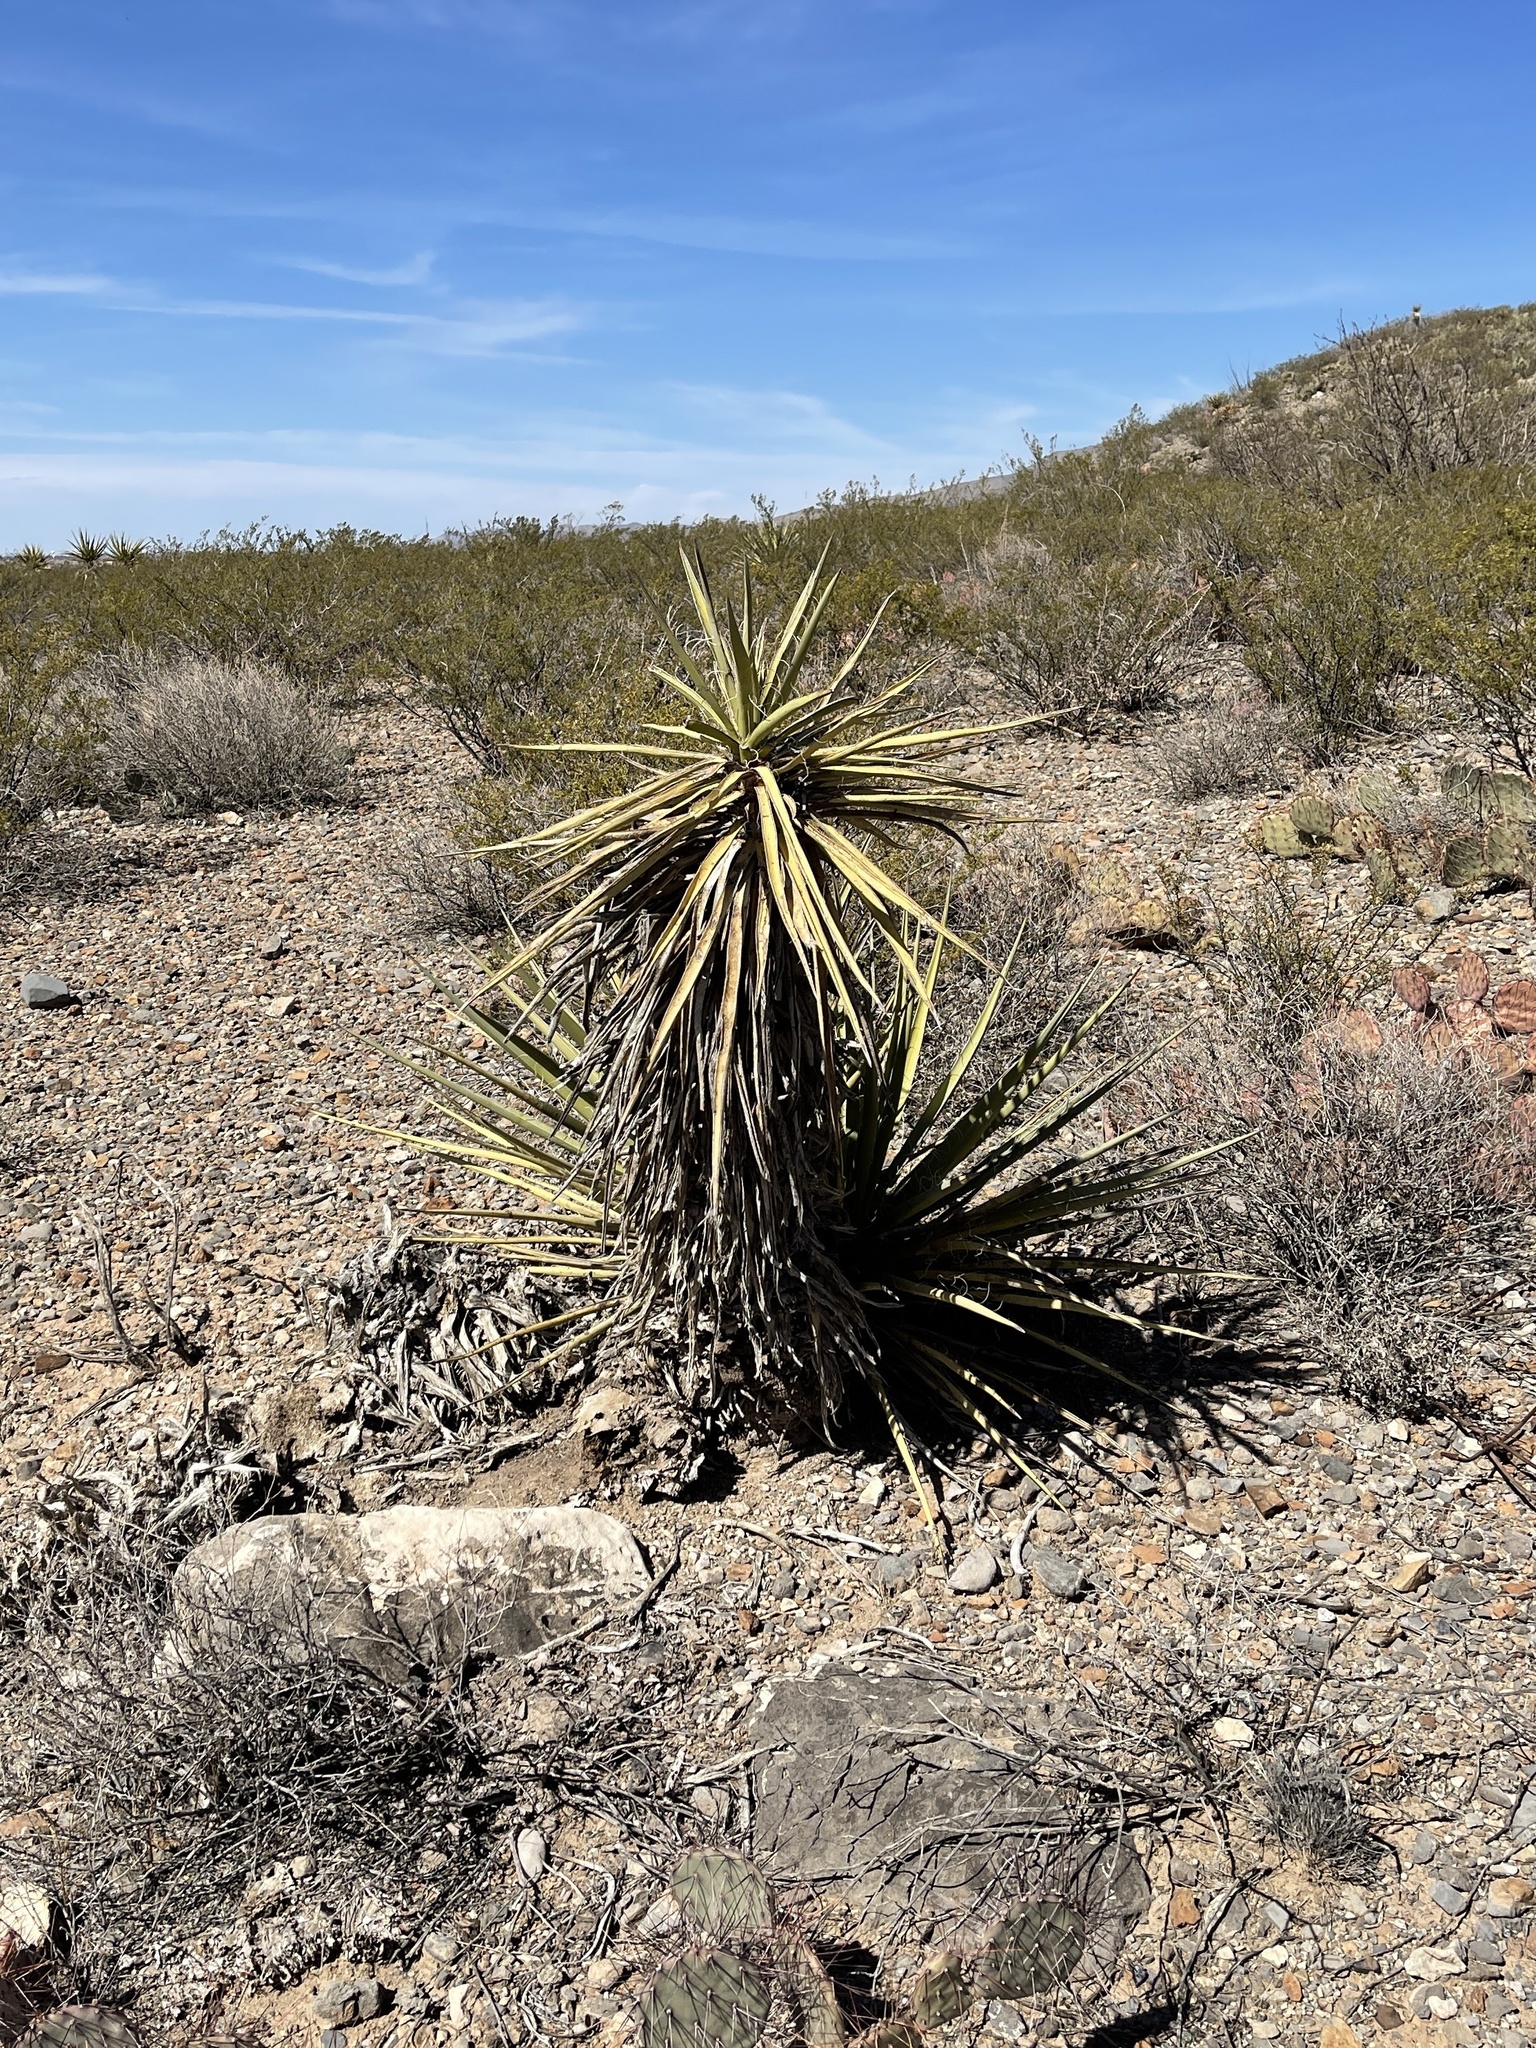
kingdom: Plantae
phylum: Tracheophyta
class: Liliopsida
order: Asparagales
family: Asparagaceae
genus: Yucca
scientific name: Yucca treculiana
